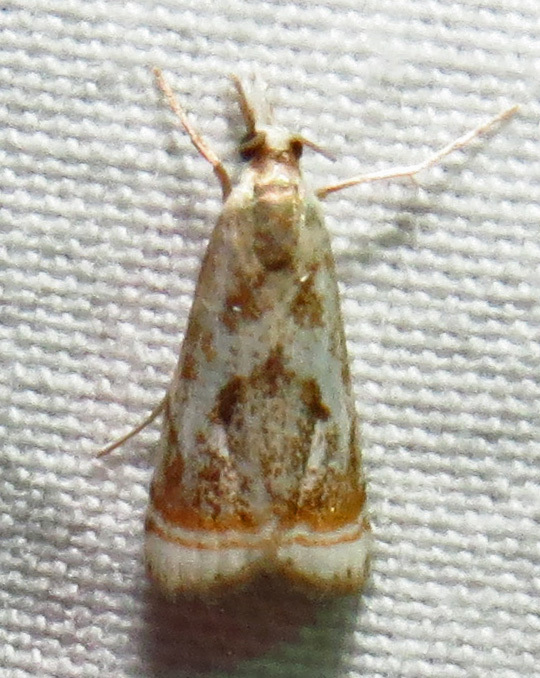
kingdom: Animalia
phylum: Arthropoda
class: Insecta
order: Lepidoptera
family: Crambidae
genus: Microcrambus
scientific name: Microcrambus elegans
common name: Elegant grass-veneer
